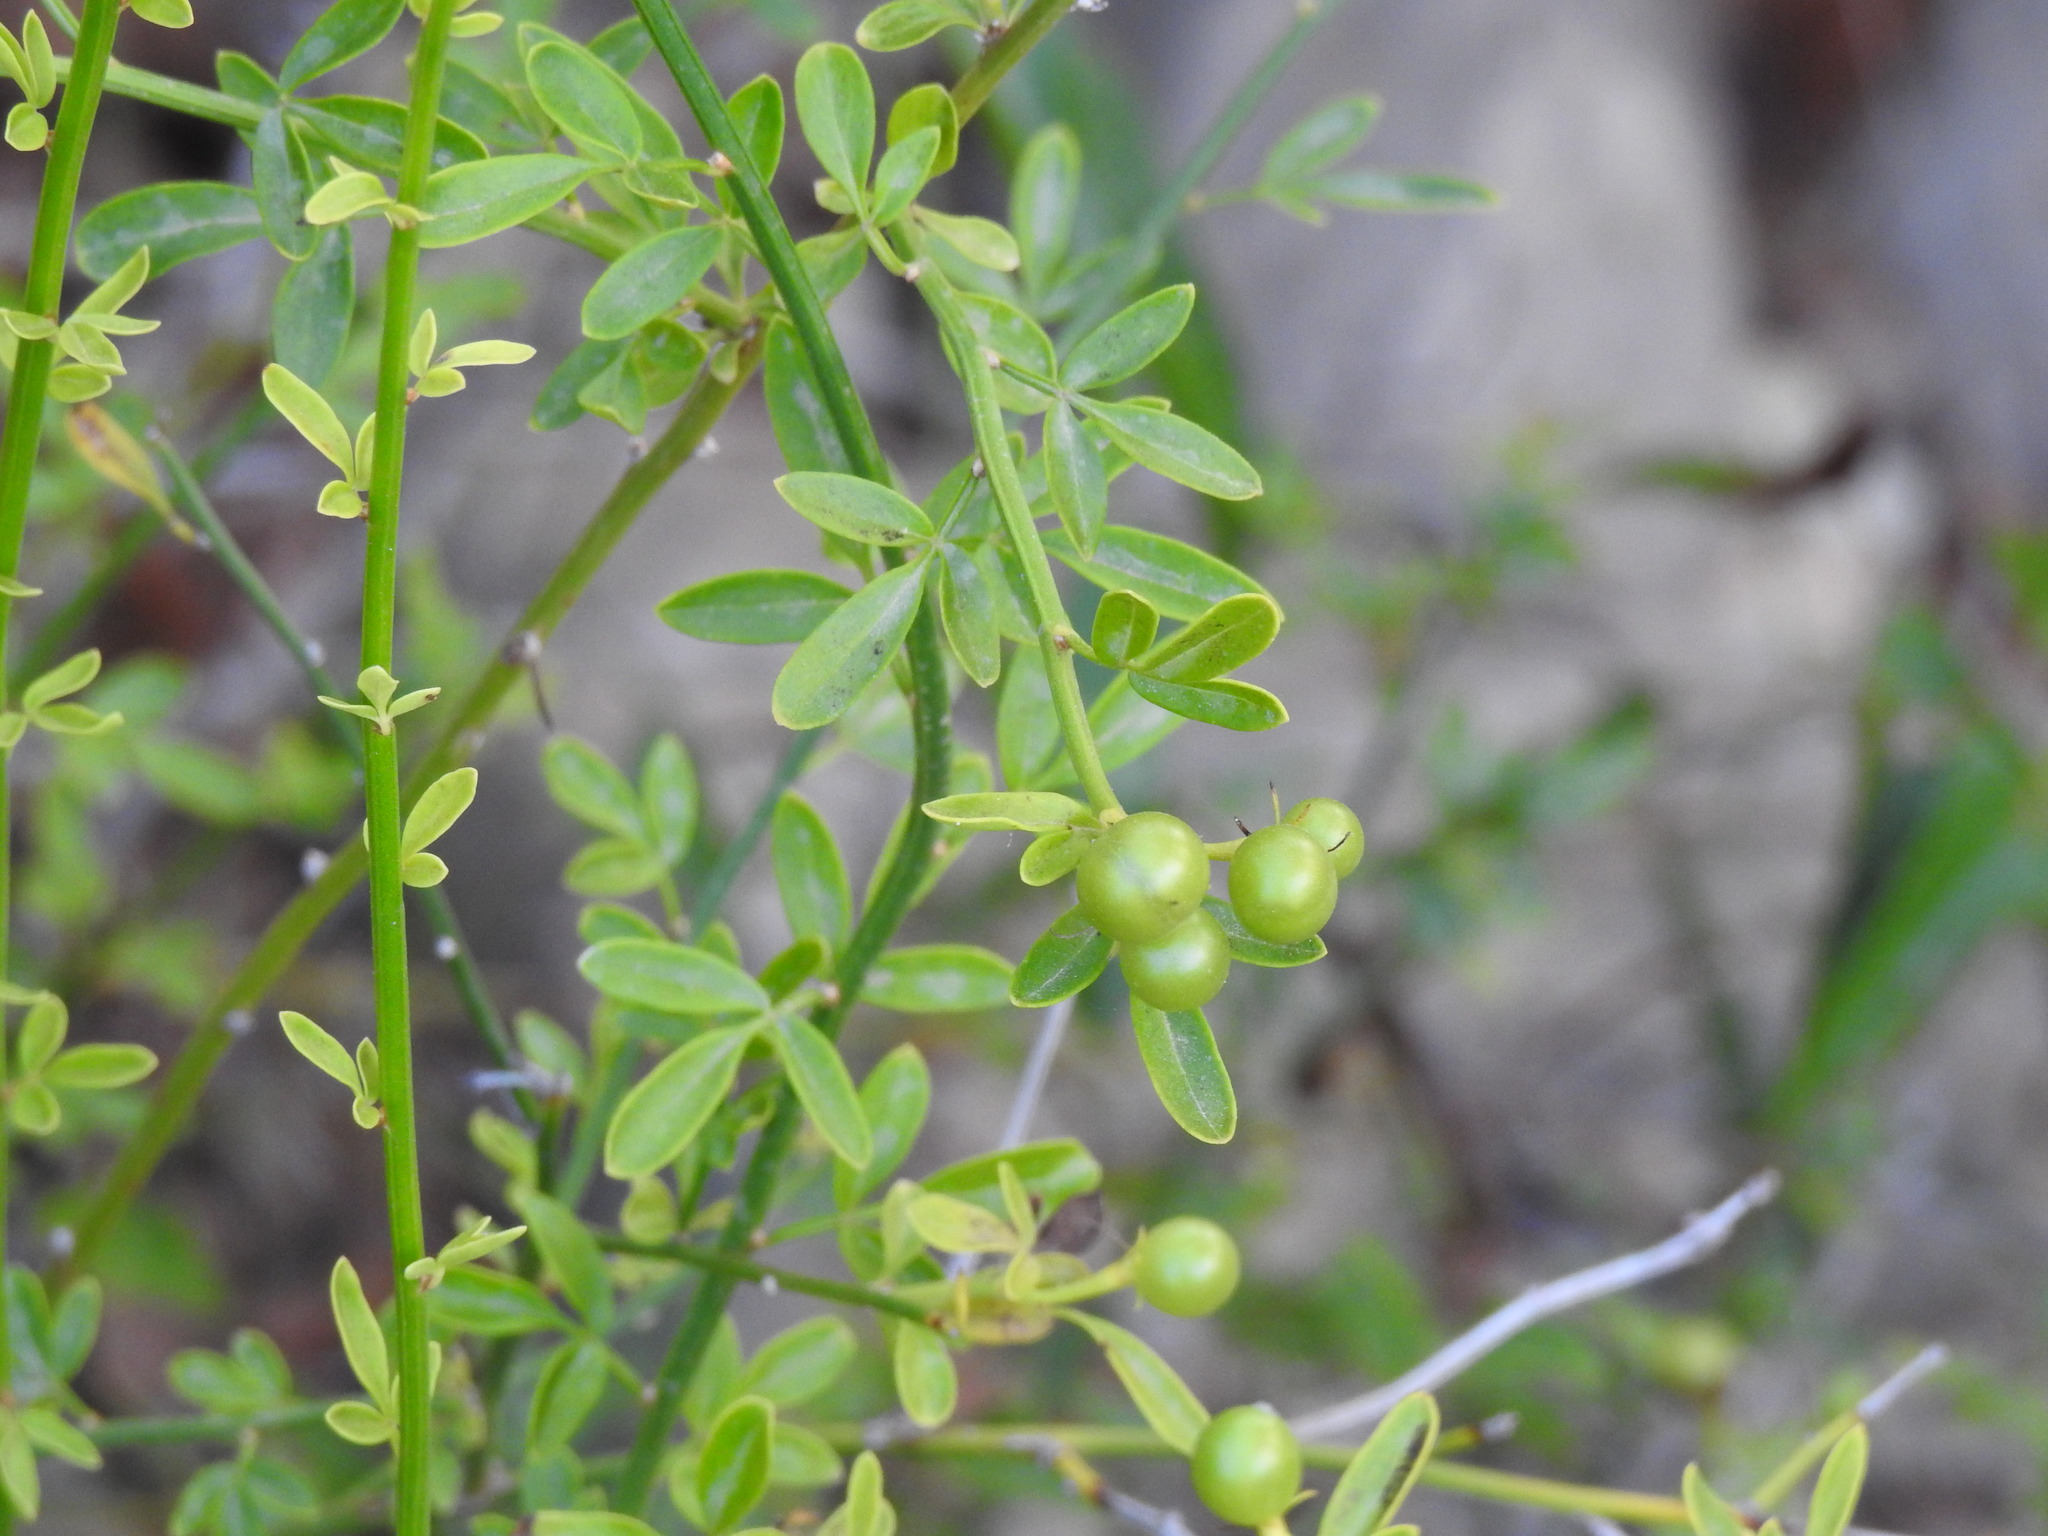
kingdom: Plantae
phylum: Tracheophyta
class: Magnoliopsida
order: Lamiales
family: Oleaceae
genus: Chrysojasminum
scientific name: Chrysojasminum fruticans
